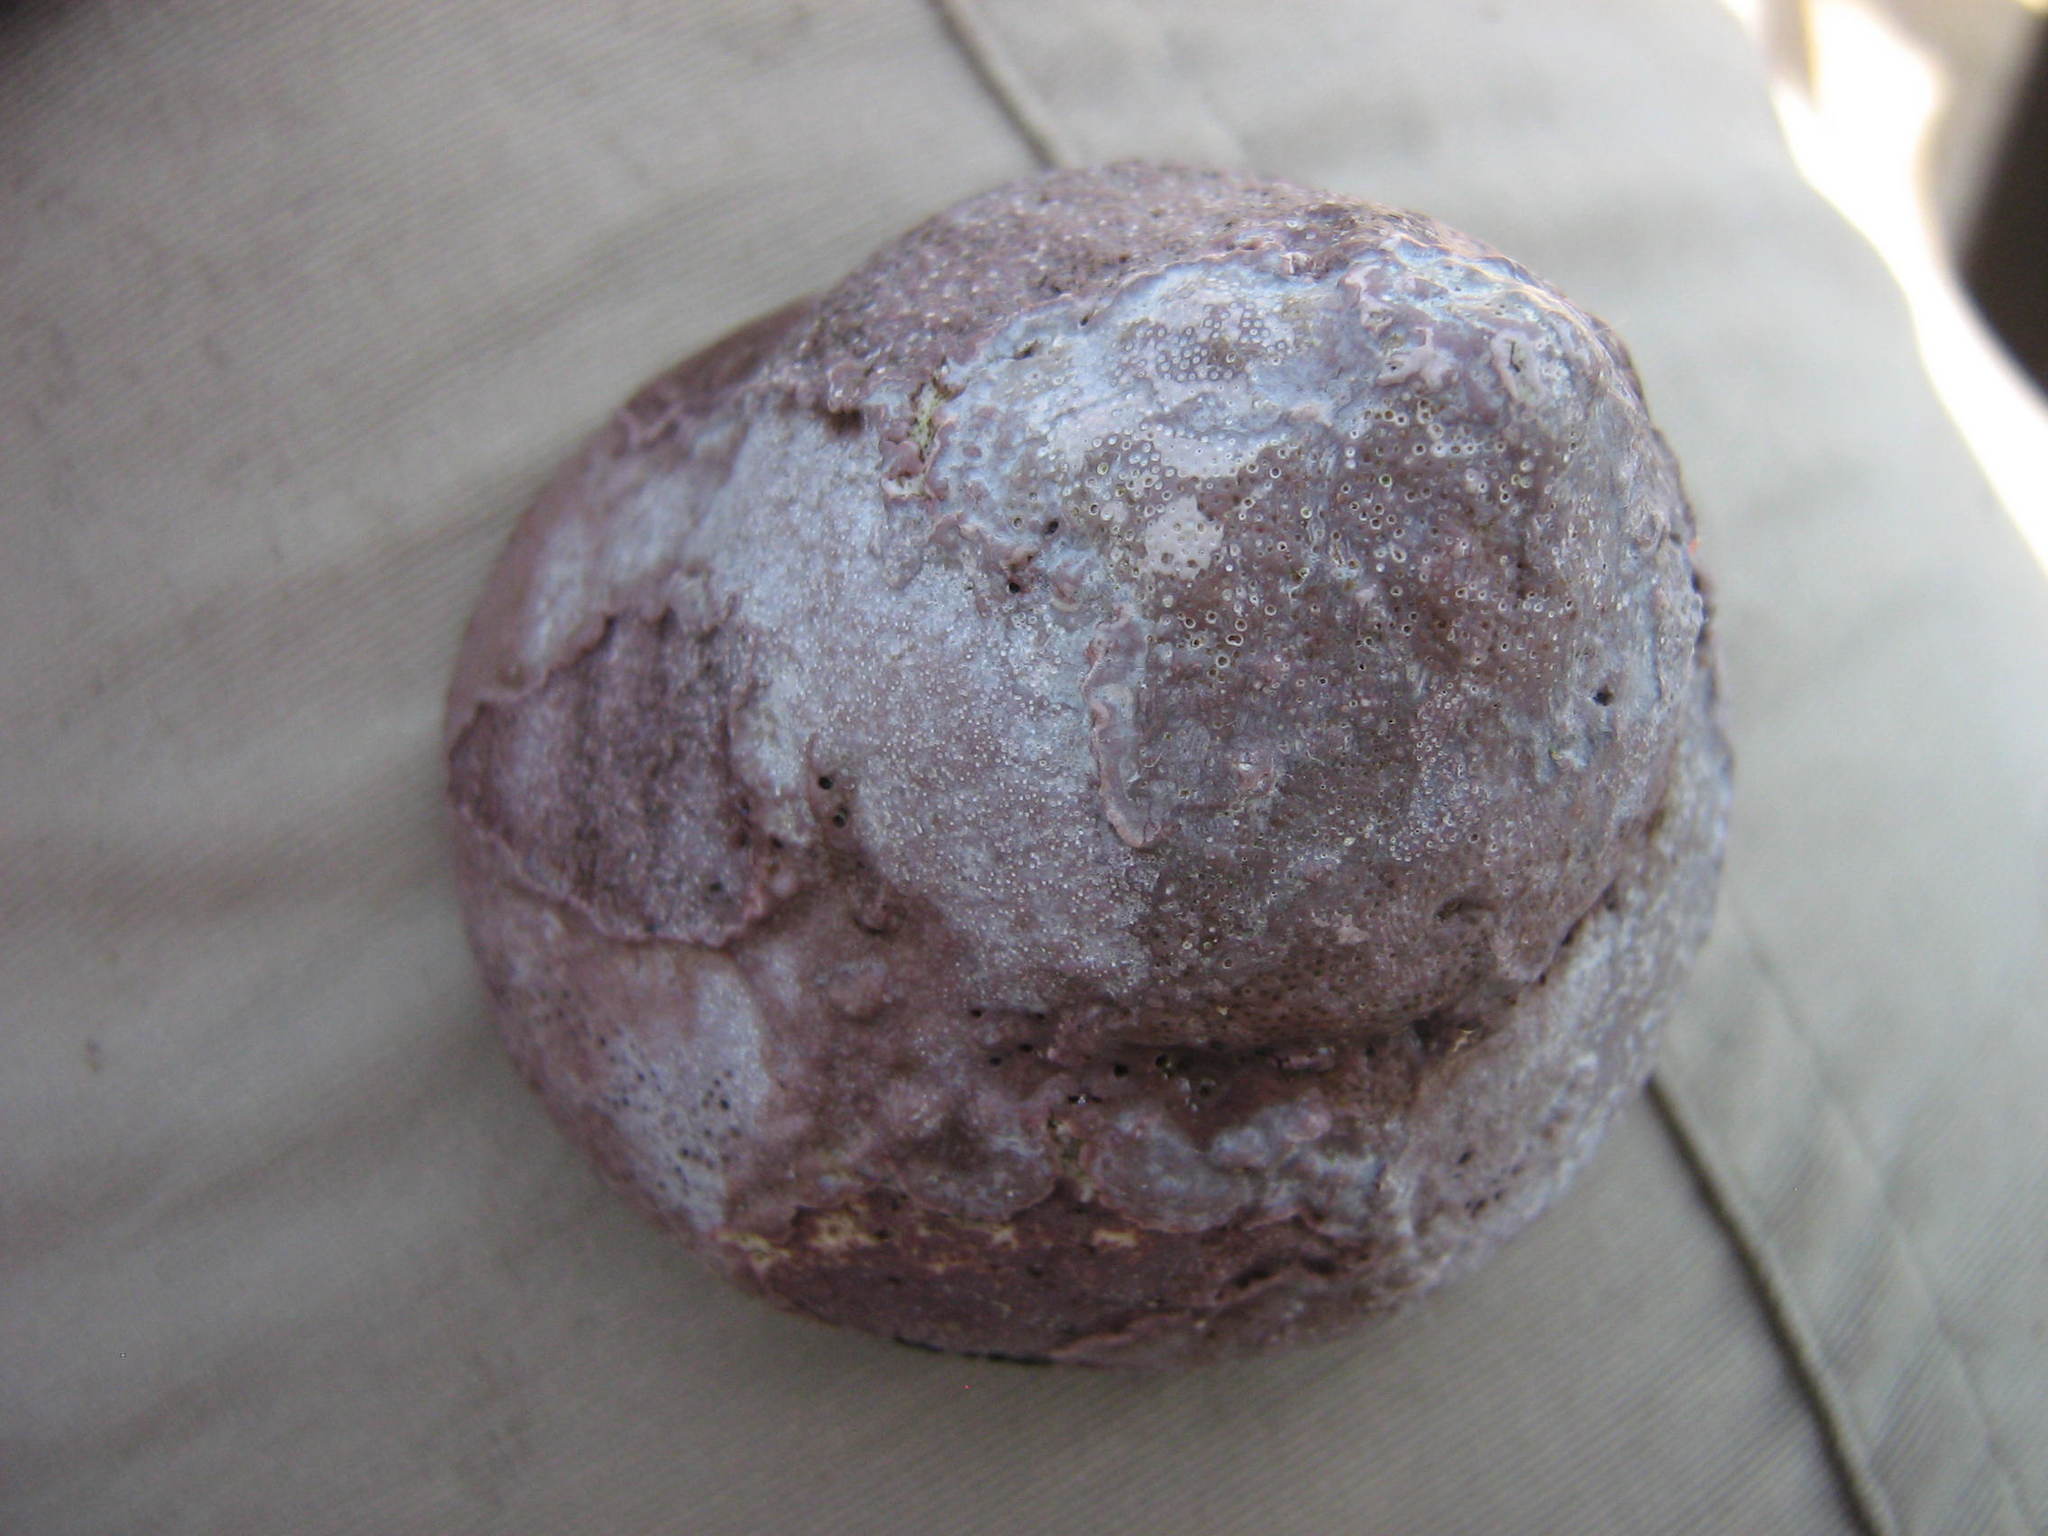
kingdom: Animalia
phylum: Mollusca
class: Gastropoda
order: Trochida
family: Tegulidae
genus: Tegula
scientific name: Tegula atra
